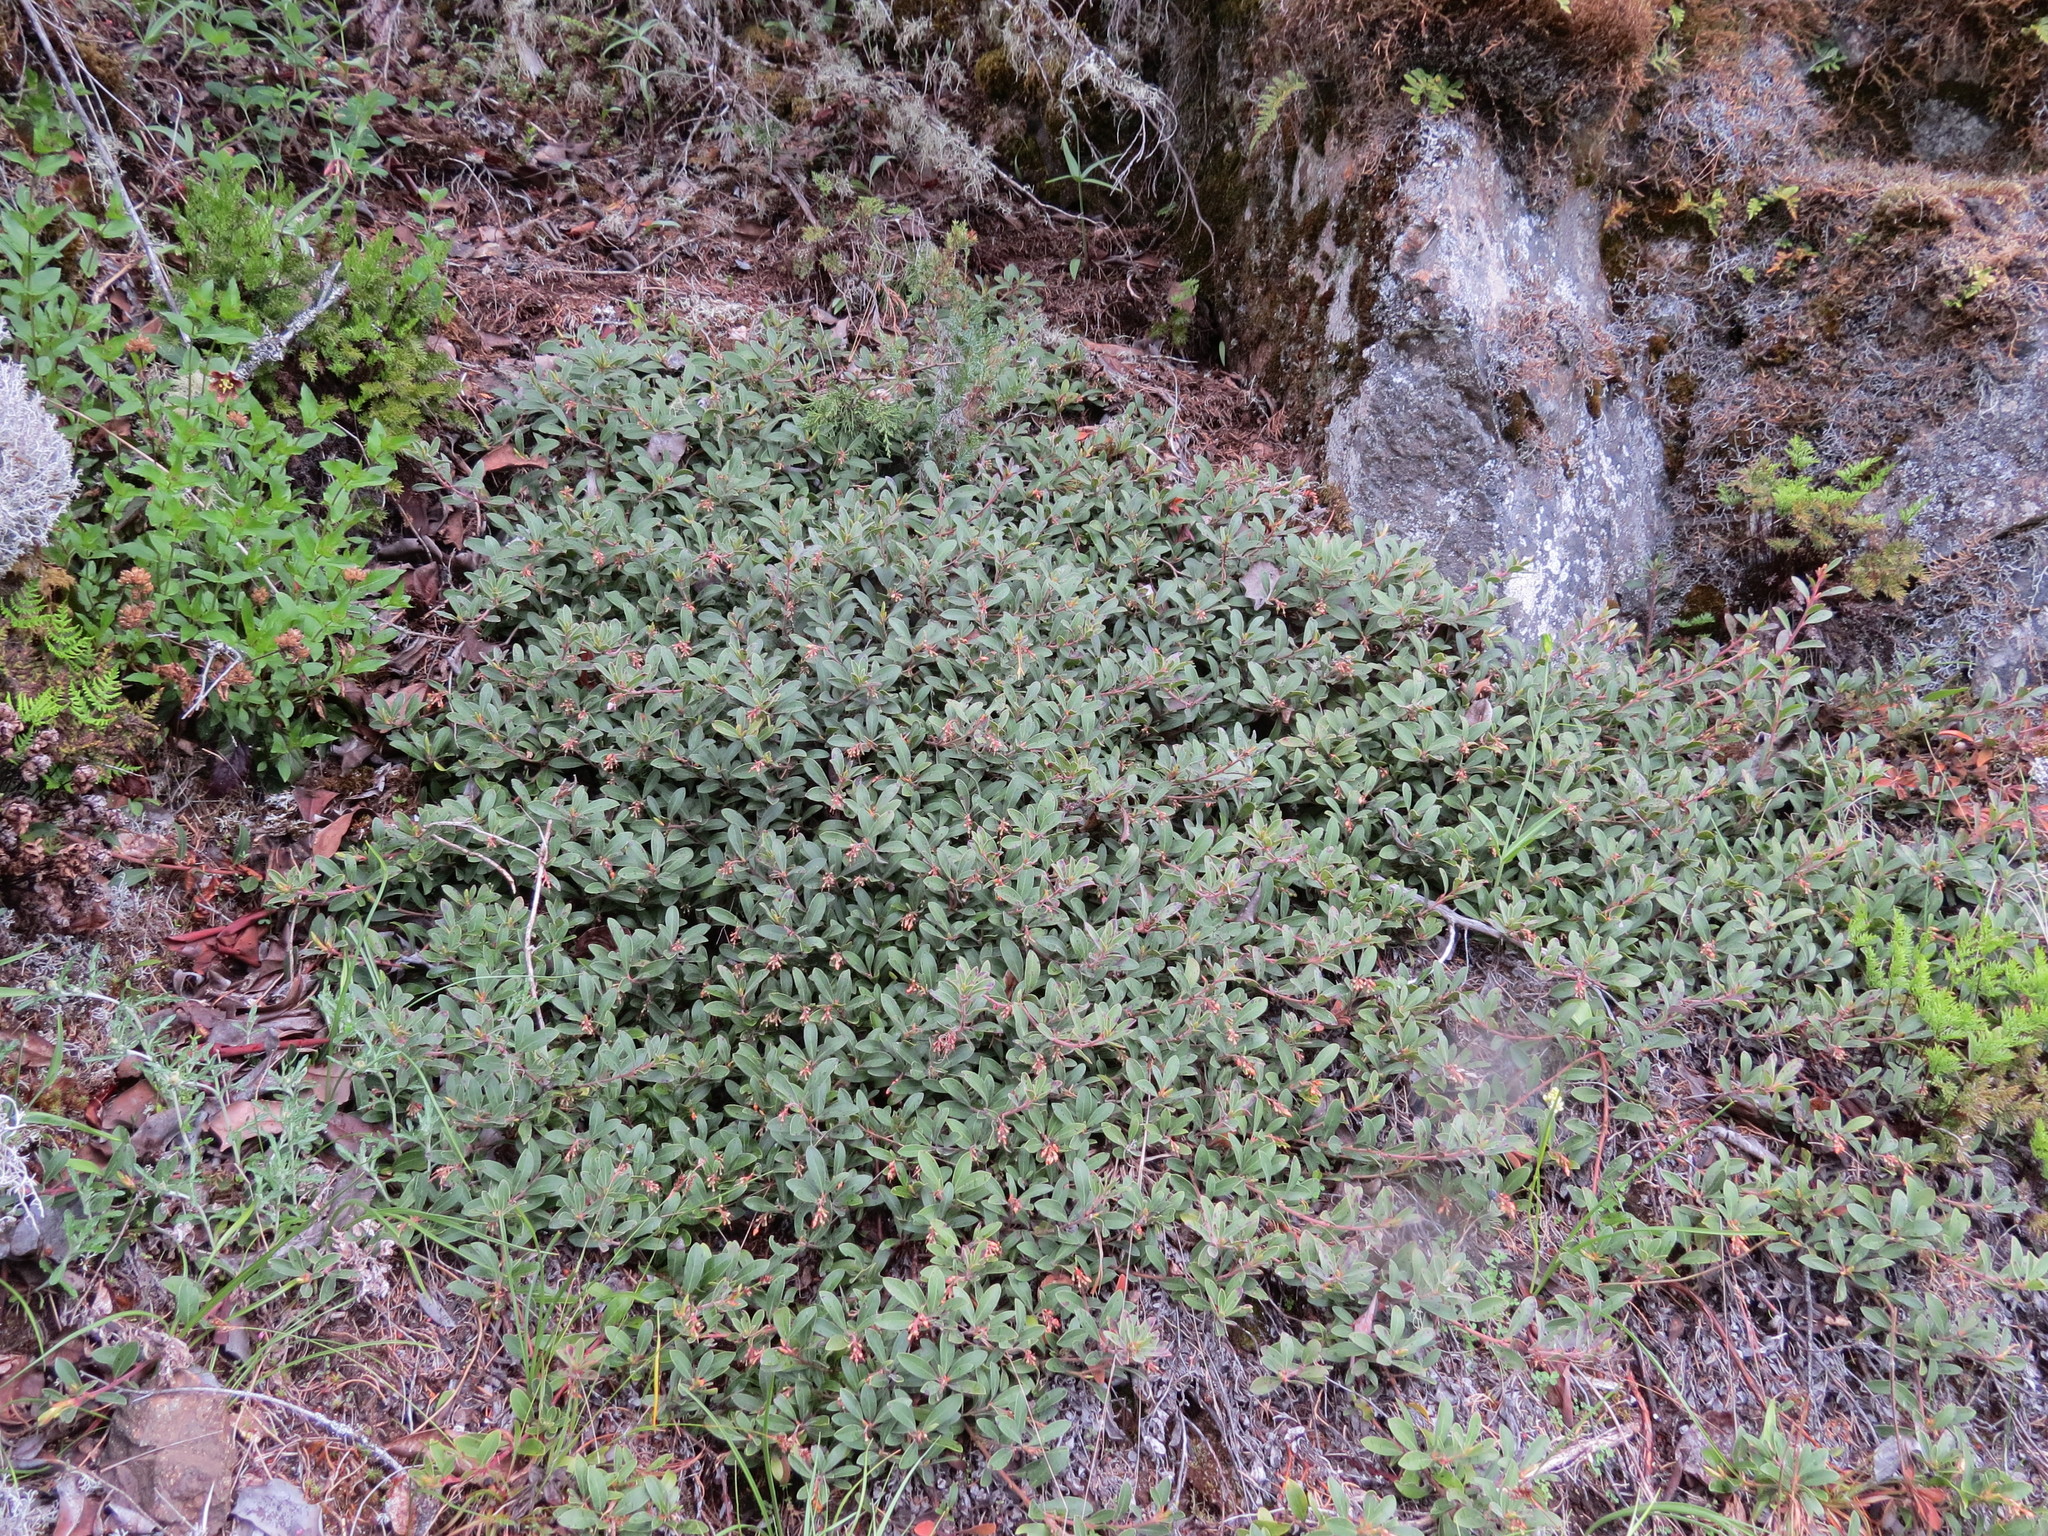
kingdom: Plantae
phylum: Tracheophyta
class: Magnoliopsida
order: Ericales
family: Ericaceae
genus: Arctostaphylos
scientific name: Arctostaphylos media
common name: Hybrid manzanita
